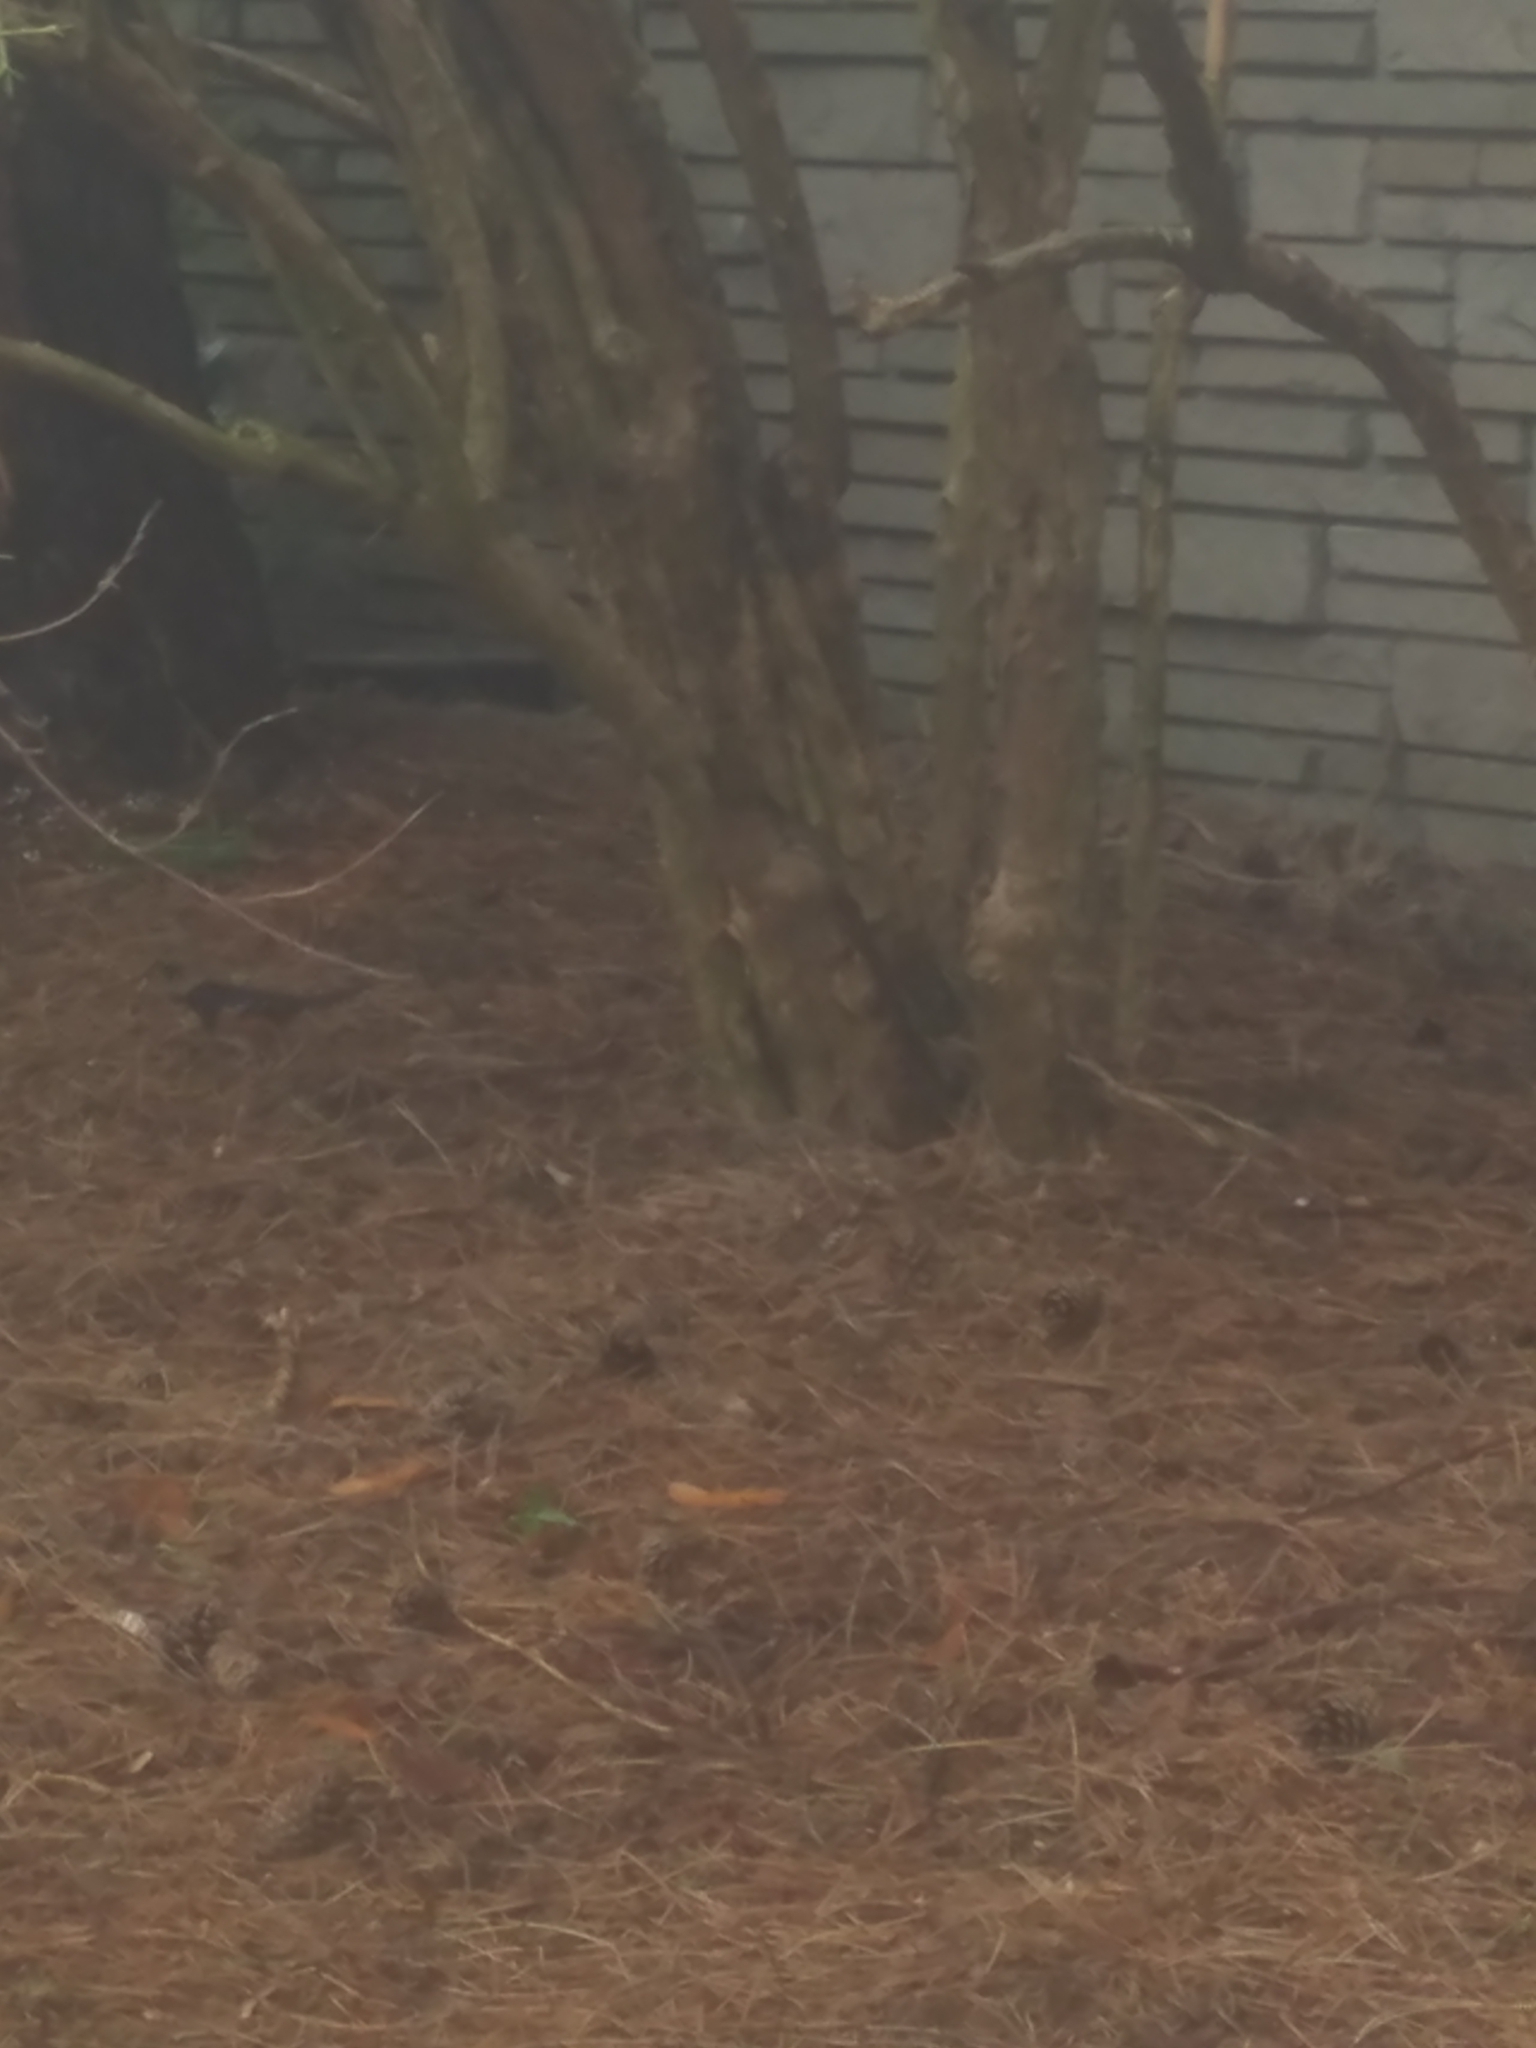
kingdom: Animalia
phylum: Chordata
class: Aves
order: Passeriformes
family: Passerellidae
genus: Pipilo
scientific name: Pipilo maculatus
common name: Spotted towhee
